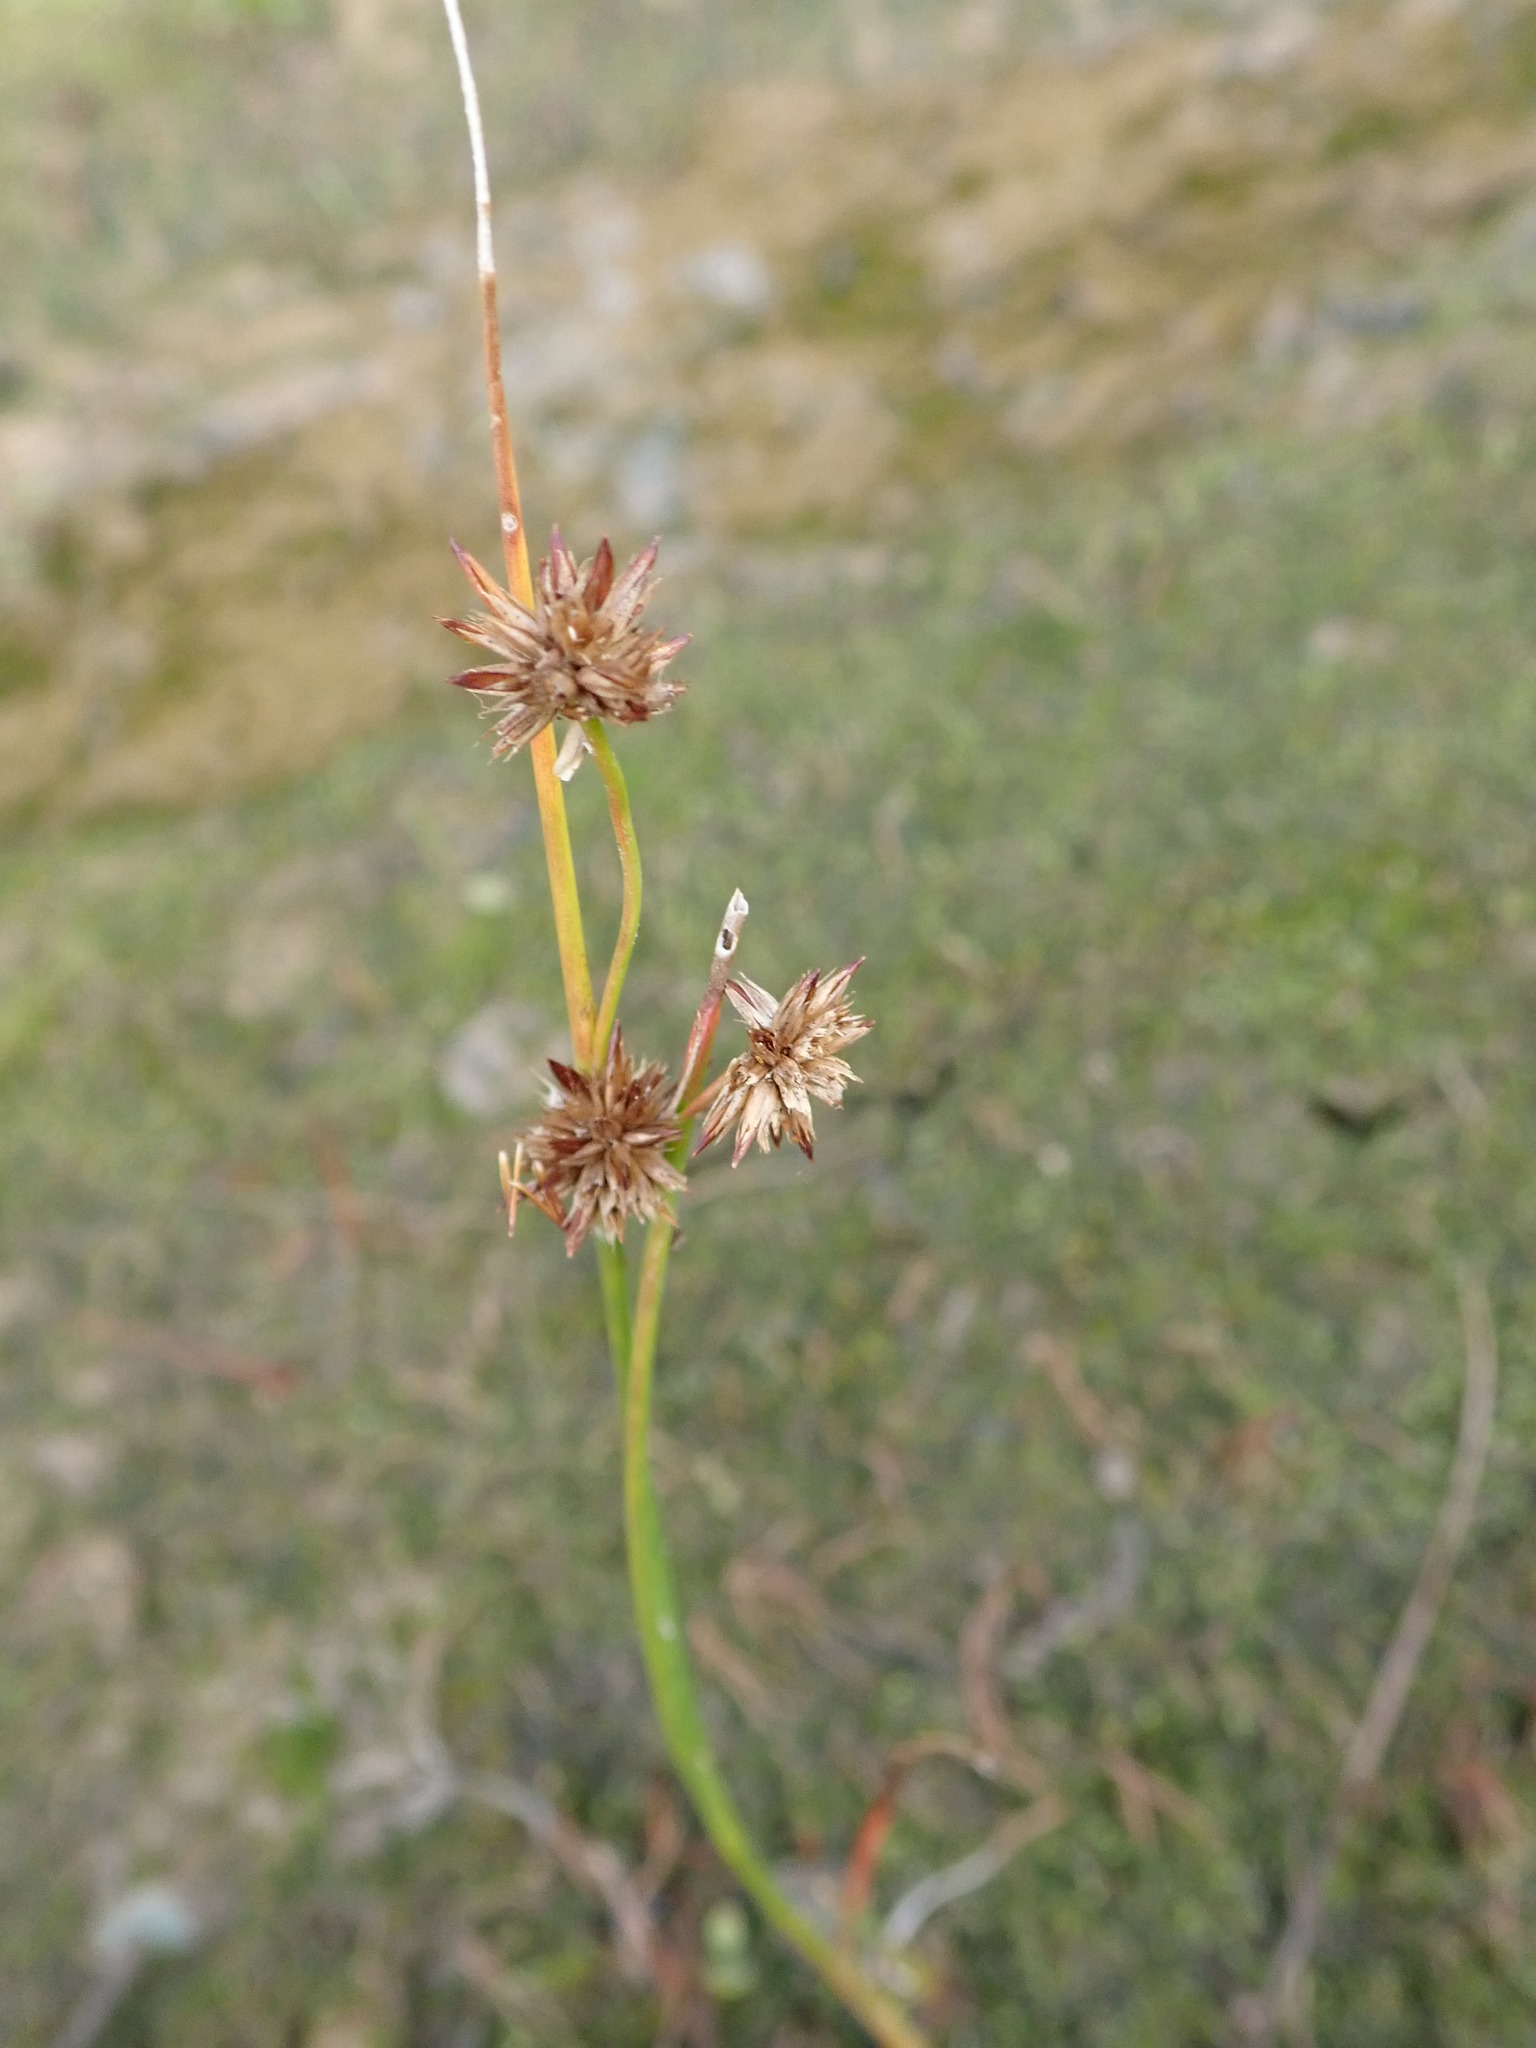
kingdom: Plantae
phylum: Tracheophyta
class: Liliopsida
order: Poales
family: Juncaceae
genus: Juncus
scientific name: Juncus nodosus
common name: Knotted rush
